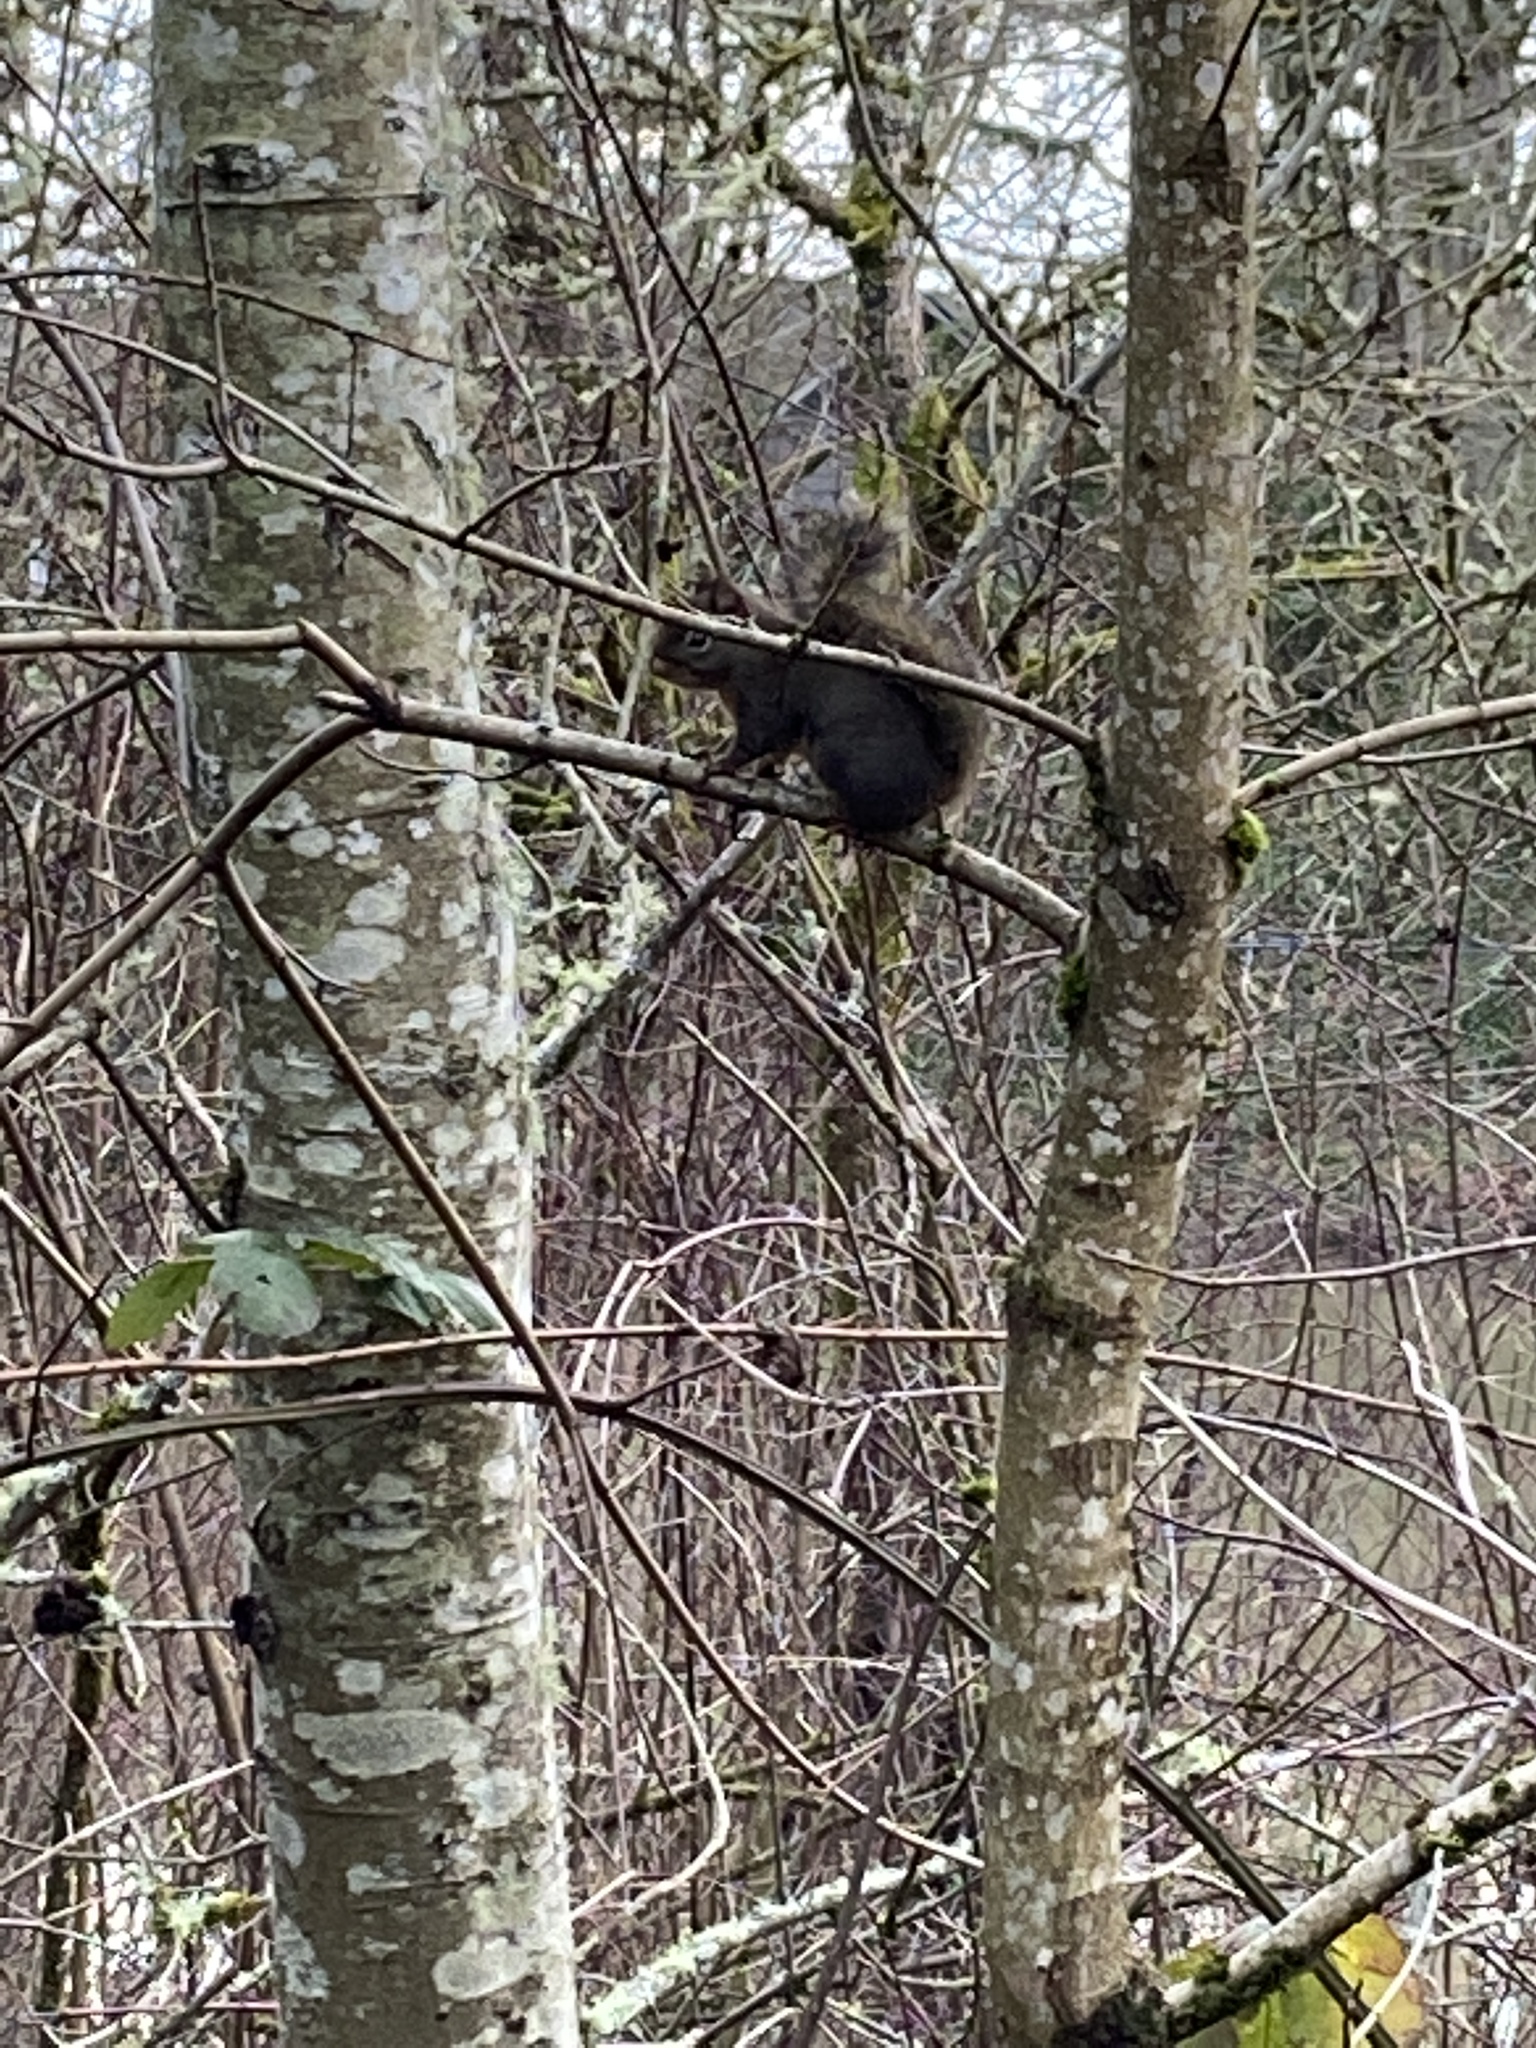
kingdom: Animalia
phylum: Chordata
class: Mammalia
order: Rodentia
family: Sciuridae
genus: Tamiasciurus
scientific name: Tamiasciurus douglasii
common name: Douglas's squirrel
